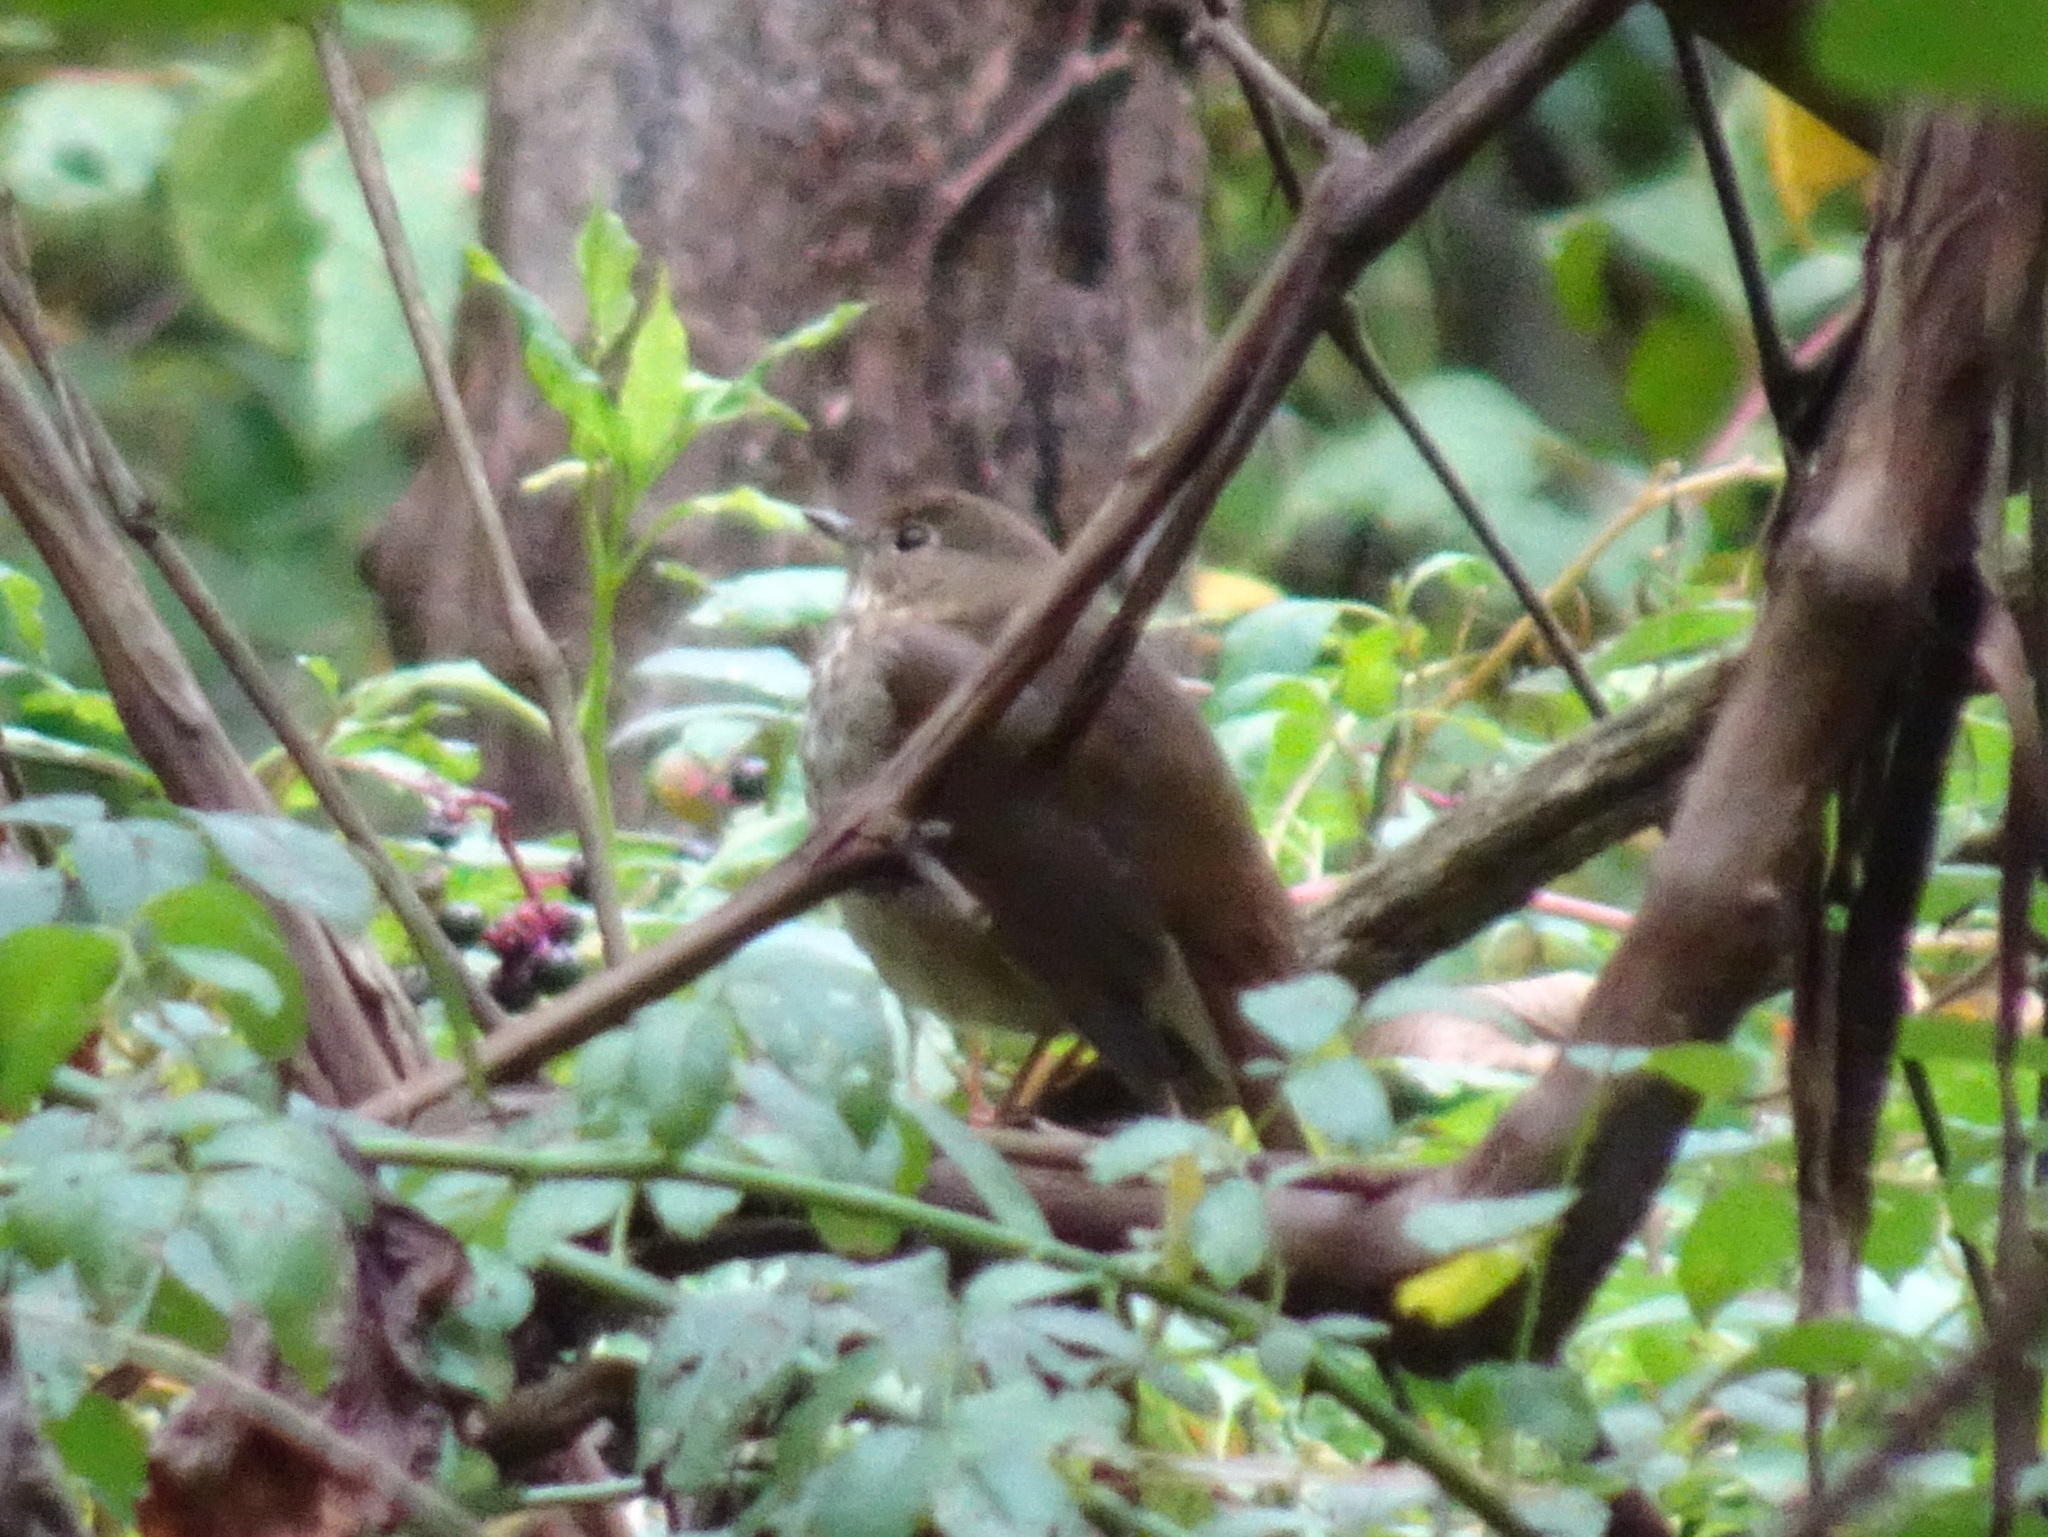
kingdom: Animalia
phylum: Chordata
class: Aves
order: Passeriformes
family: Turdidae
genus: Catharus
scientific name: Catharus guttatus
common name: Hermit thrush
